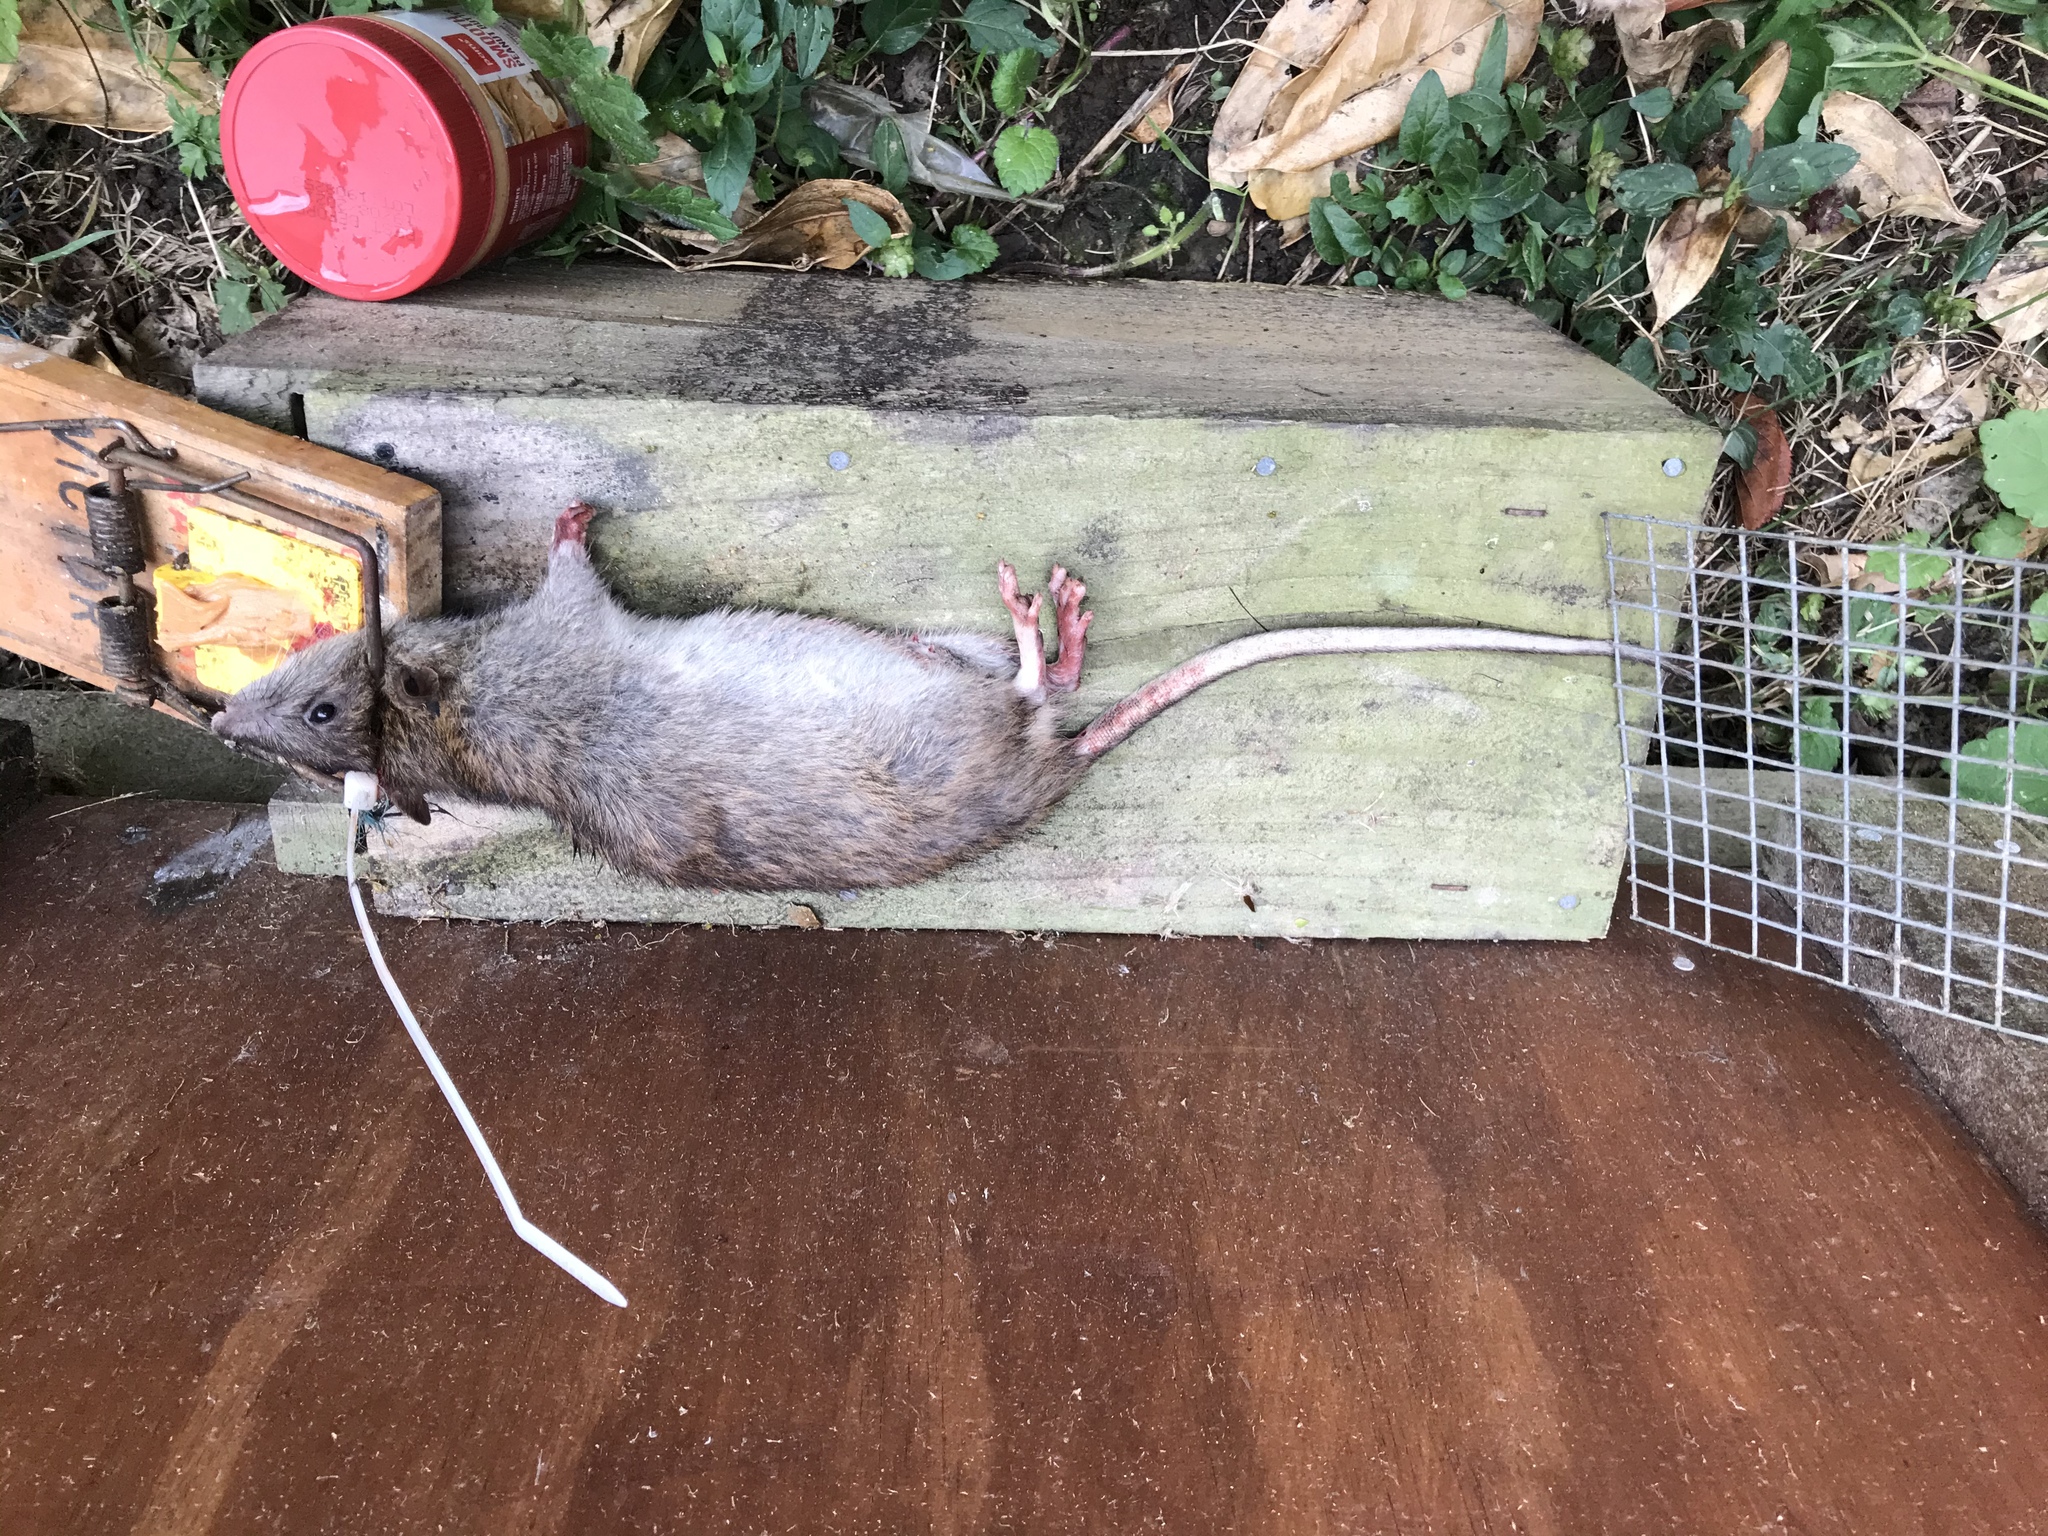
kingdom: Animalia
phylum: Chordata
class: Mammalia
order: Rodentia
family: Muridae
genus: Rattus
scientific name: Rattus rattus
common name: Black rat
